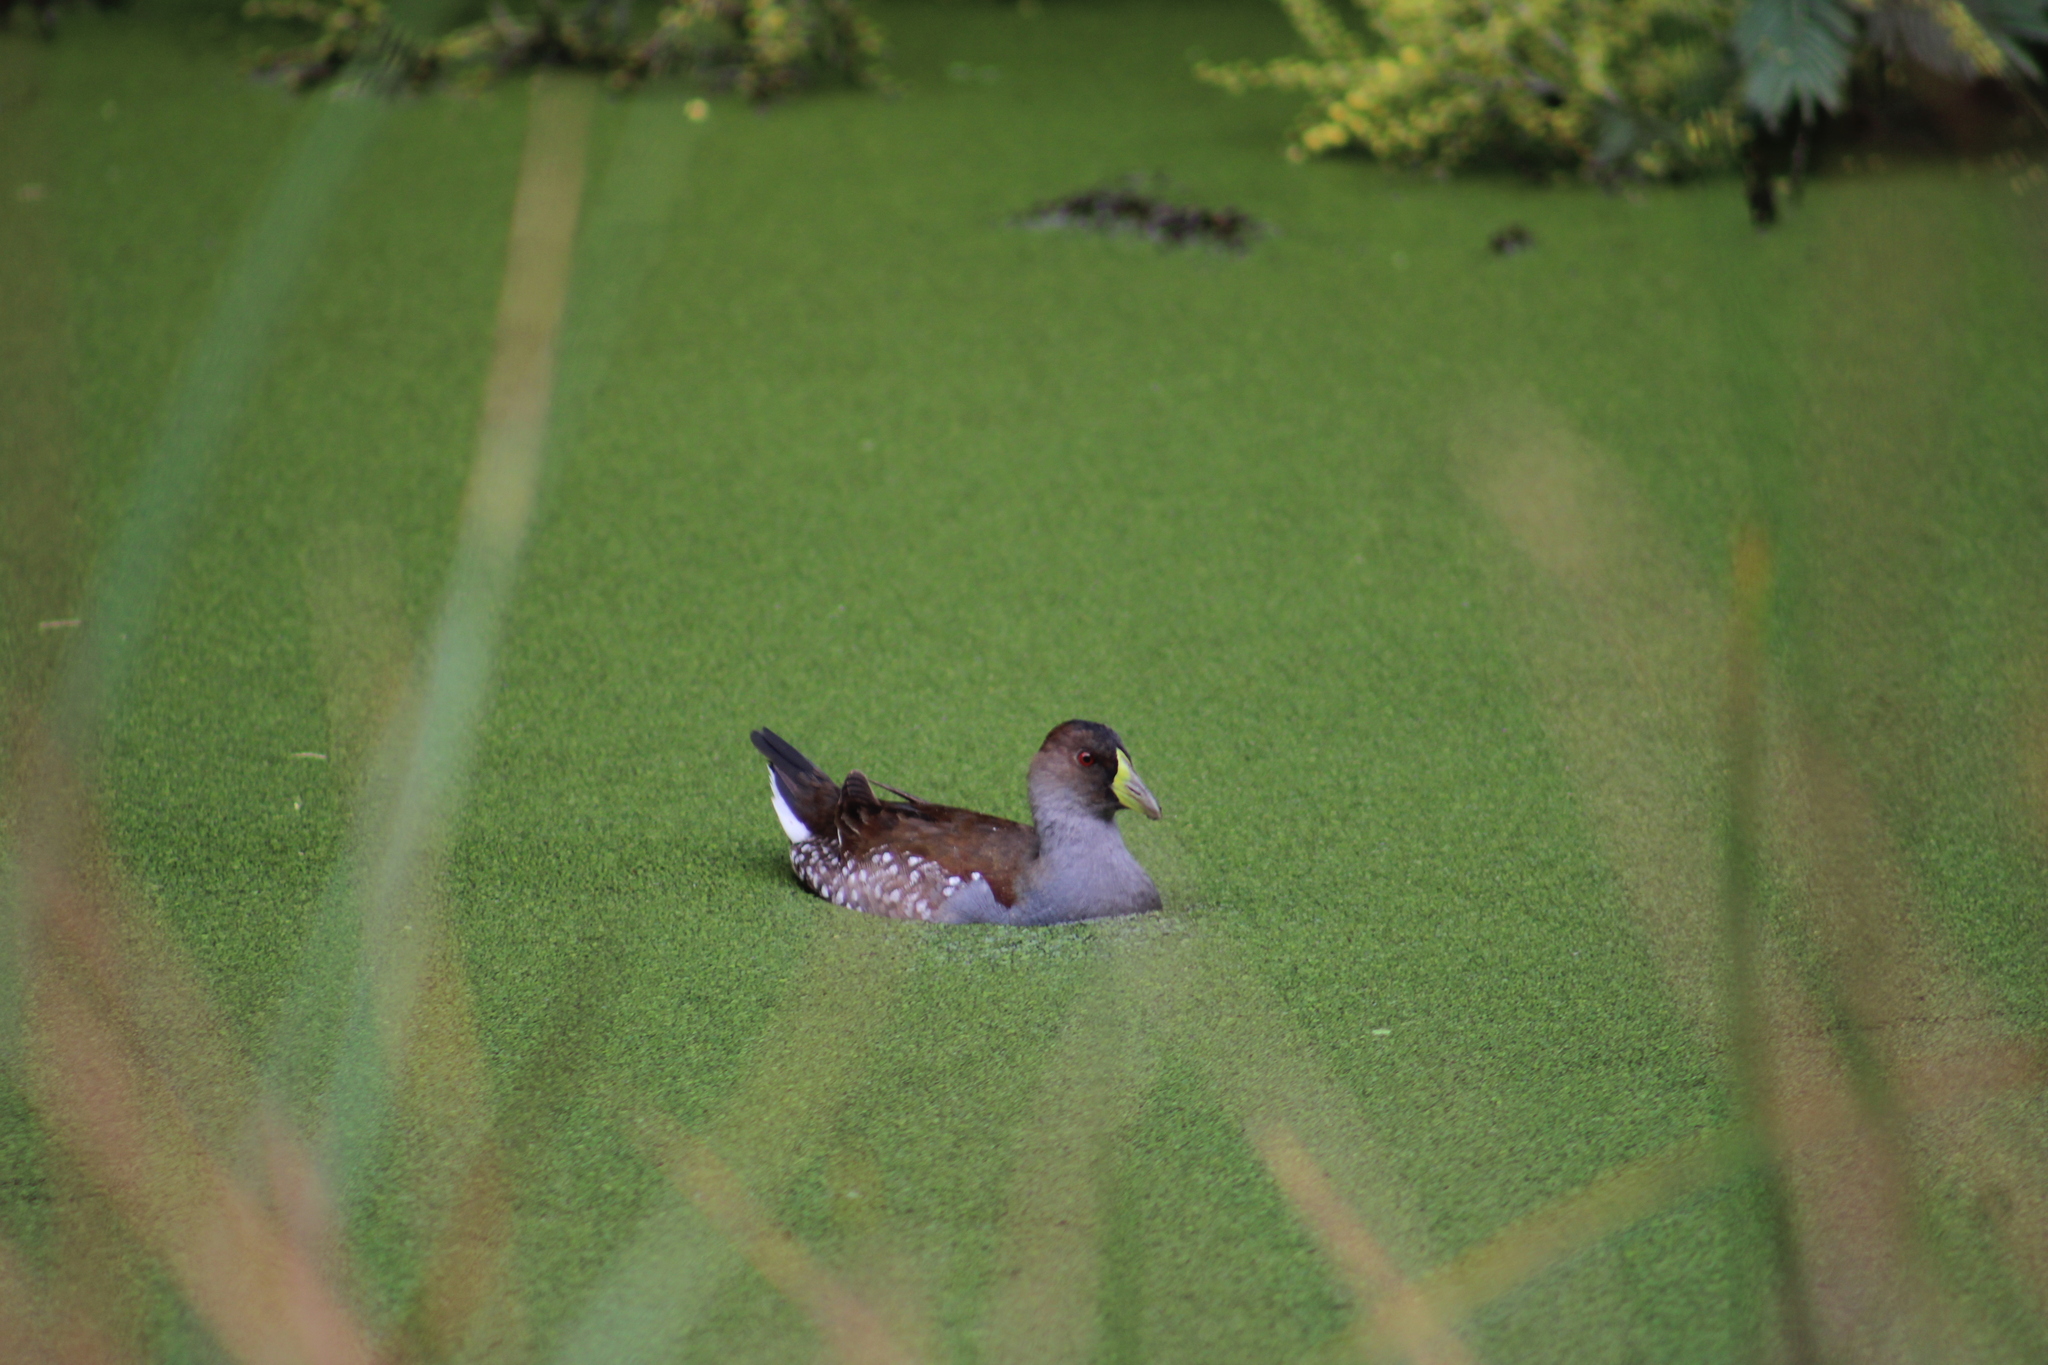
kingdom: Animalia
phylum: Chordata
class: Aves
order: Gruiformes
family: Rallidae
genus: Gallinula
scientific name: Gallinula melanops
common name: Spot-flanked gallinule
